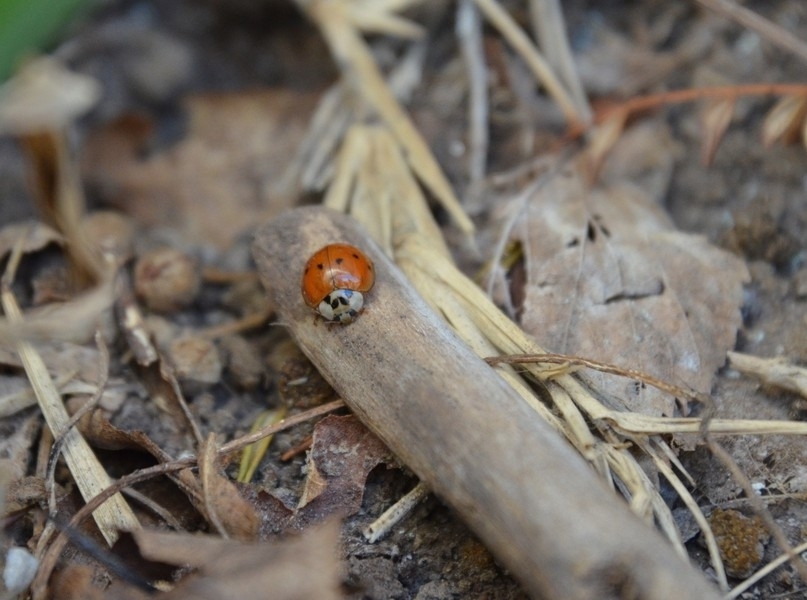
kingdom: Animalia
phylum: Arthropoda
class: Insecta
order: Coleoptera
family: Coccinellidae
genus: Harmonia
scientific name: Harmonia axyridis
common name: Harlequin ladybird
